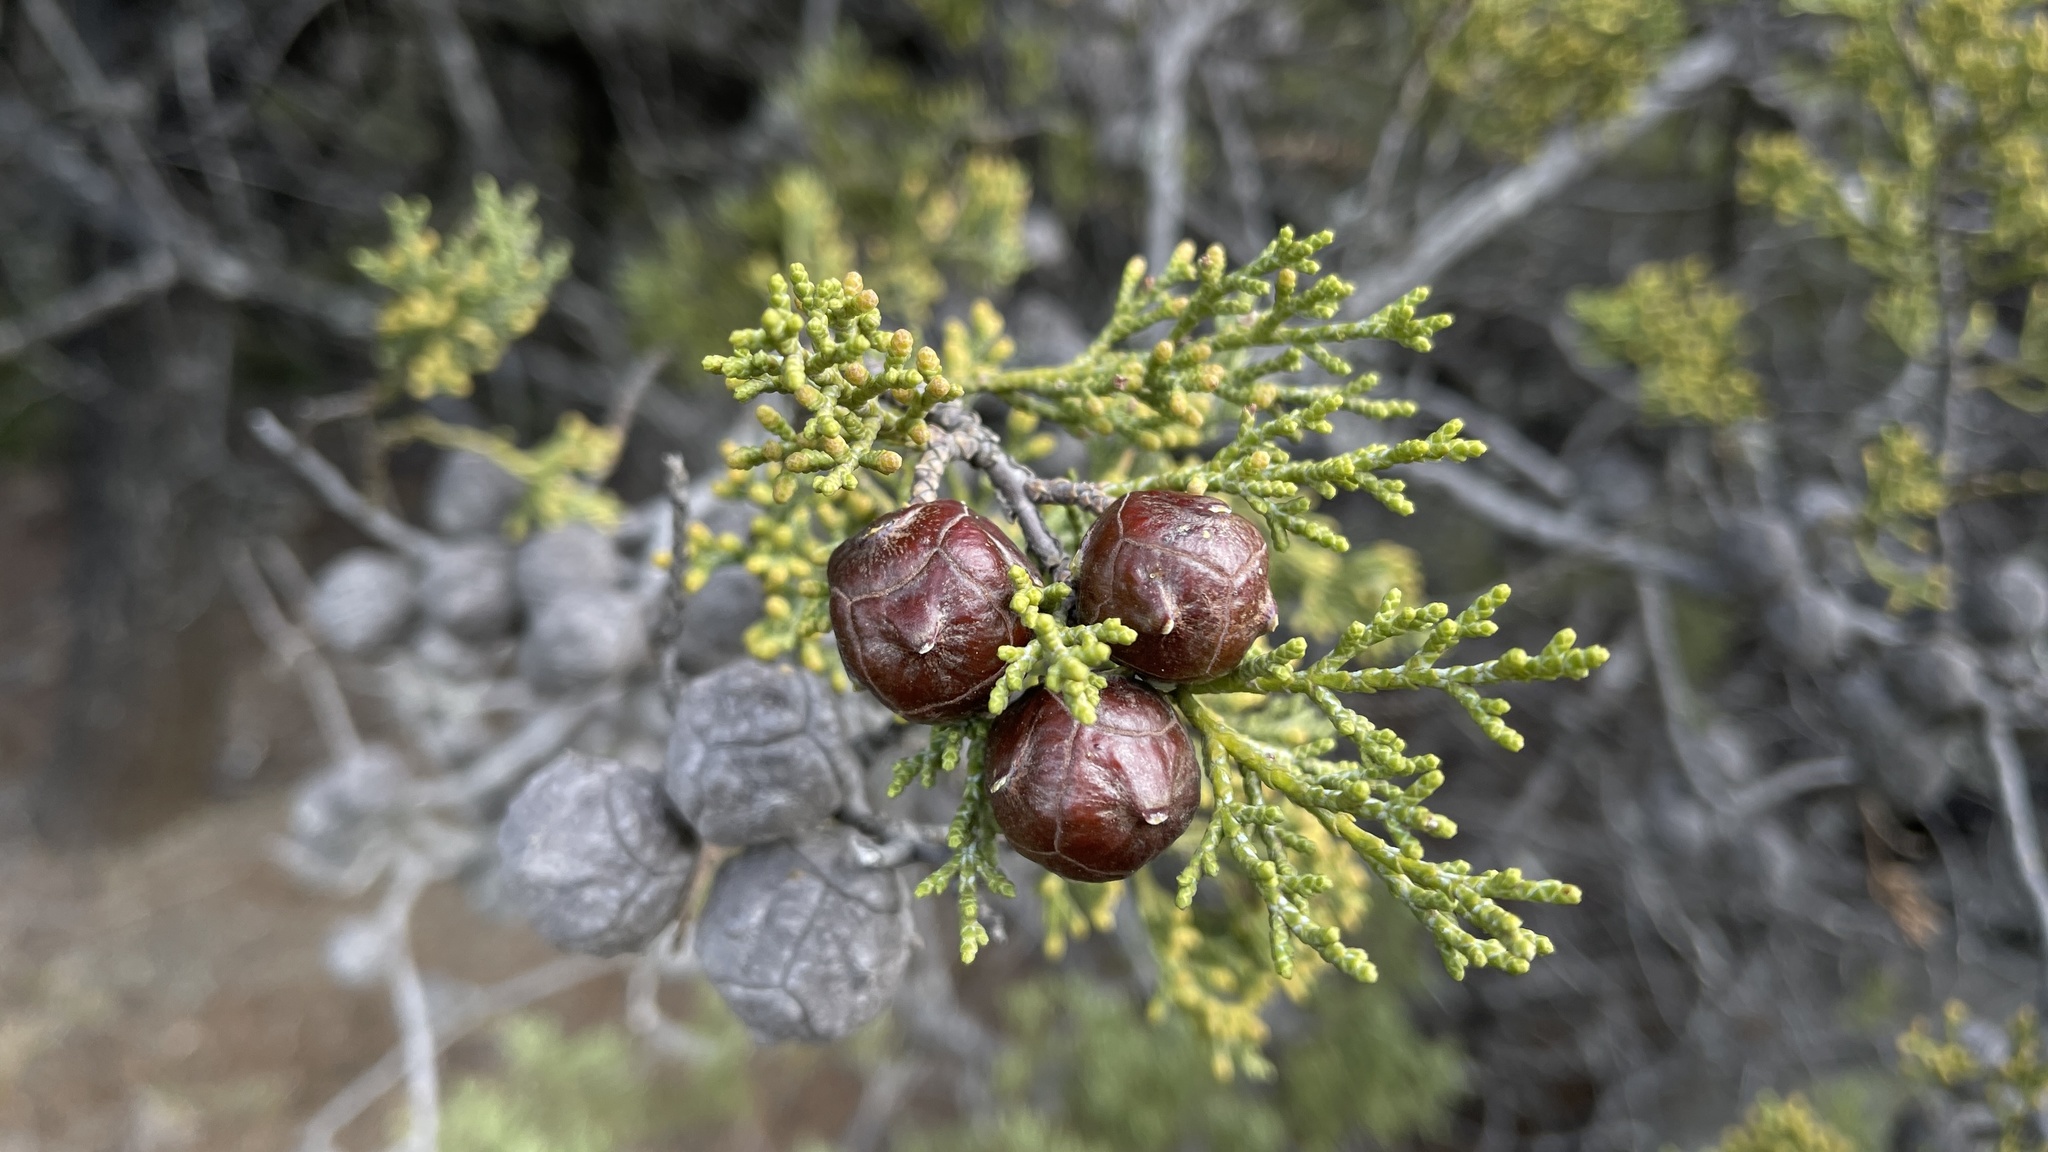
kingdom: Plantae
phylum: Tracheophyta
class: Pinopsida
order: Pinales
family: Cupressaceae
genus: Cupressus
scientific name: Cupressus sargentii
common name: Sargent cypress
